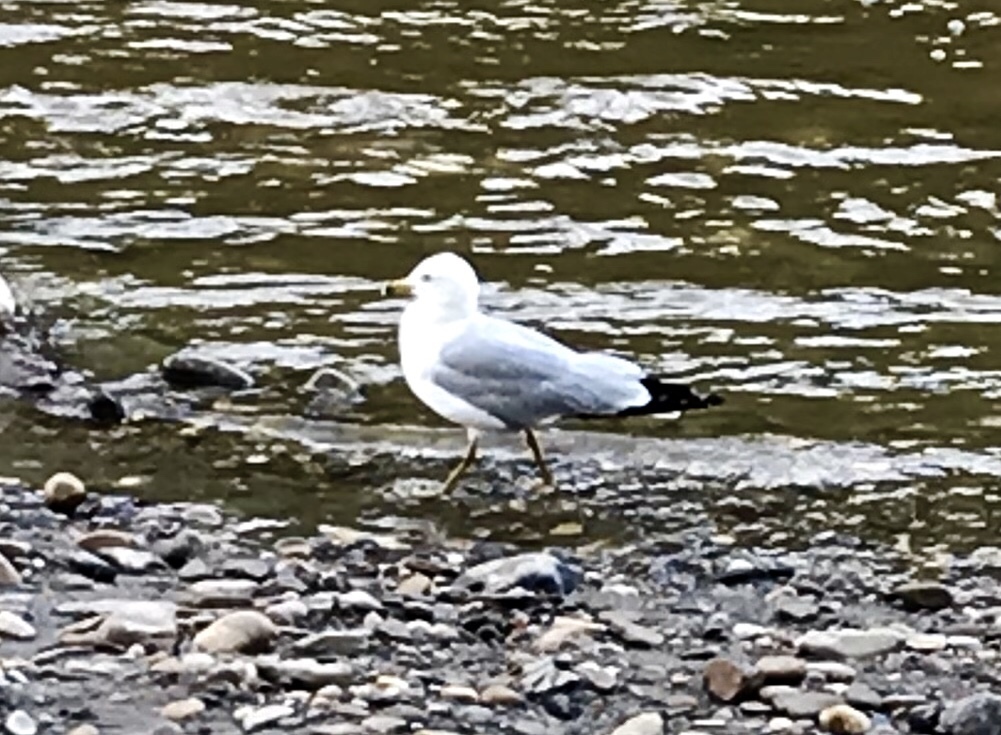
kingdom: Animalia
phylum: Chordata
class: Aves
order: Charadriiformes
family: Laridae
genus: Larus
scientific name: Larus delawarensis
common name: Ring-billed gull
